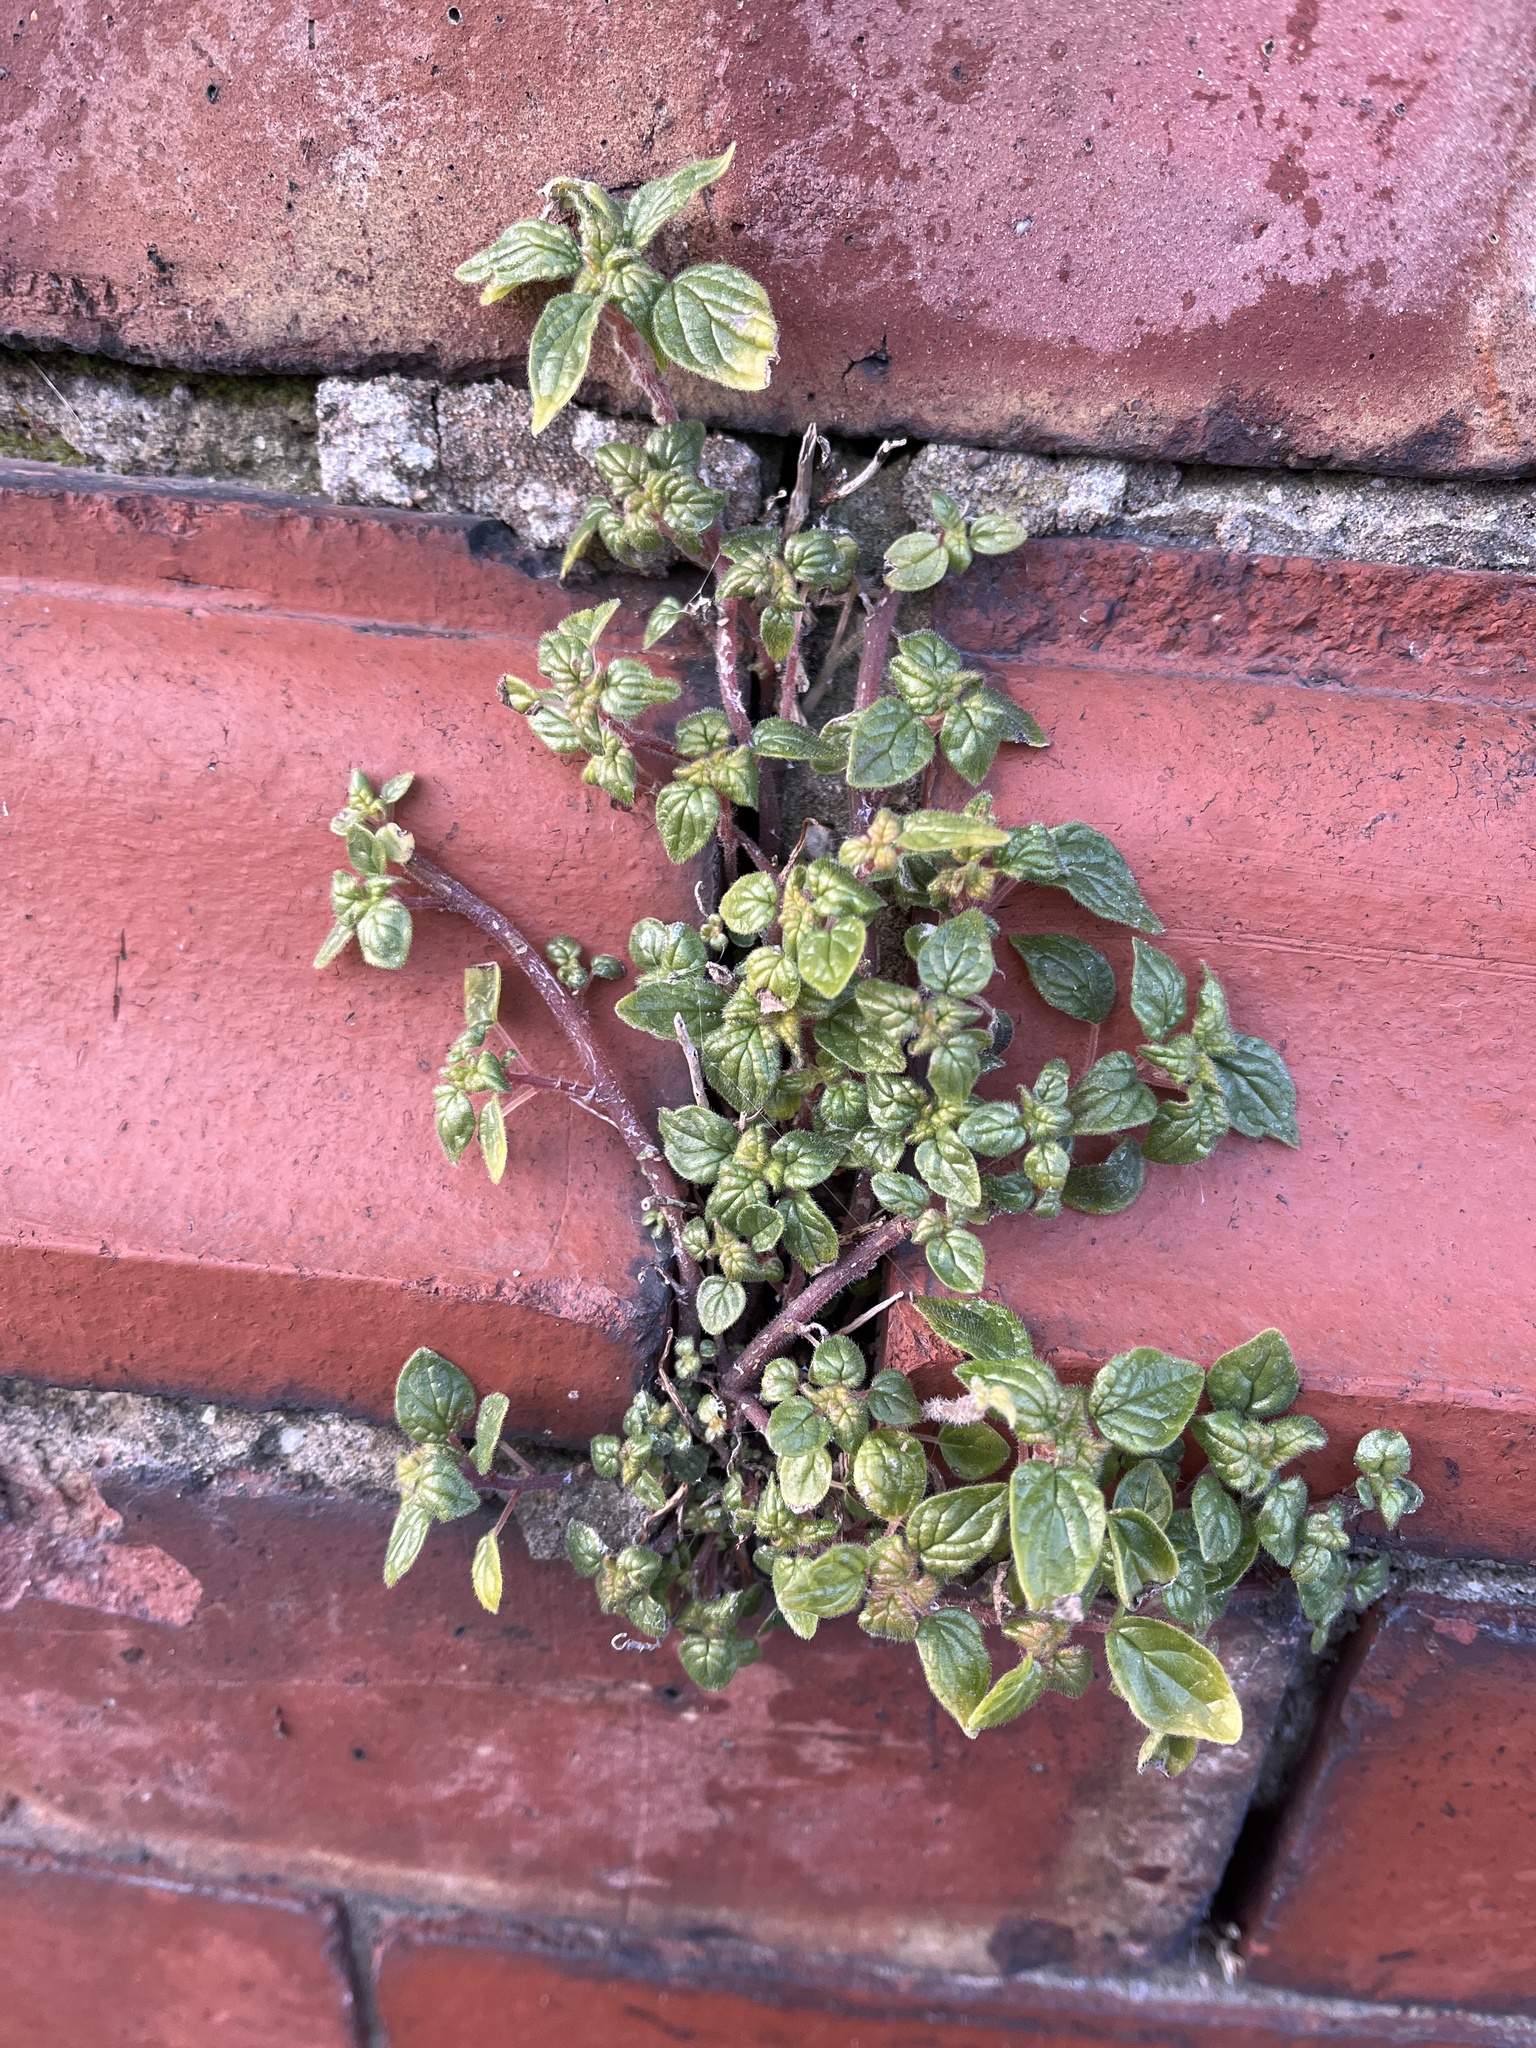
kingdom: Plantae
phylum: Tracheophyta
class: Magnoliopsida
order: Rosales
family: Urticaceae
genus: Parietaria
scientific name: Parietaria judaica
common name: Pellitory-of-the-wall
